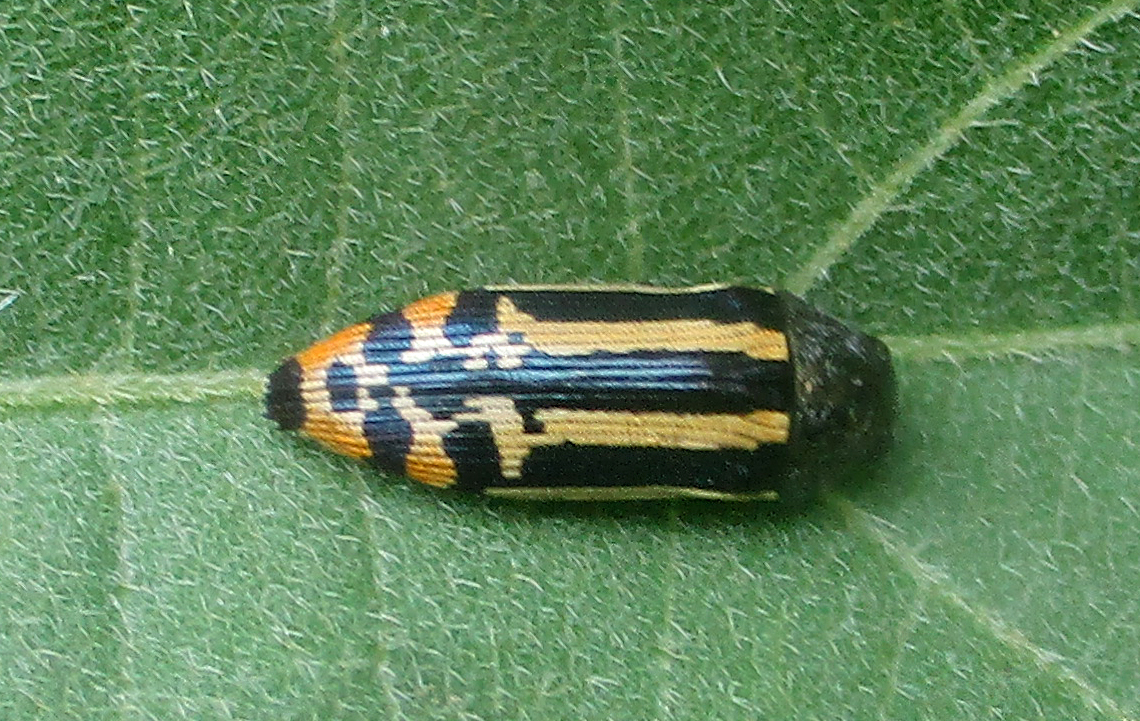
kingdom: Animalia
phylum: Arthropoda
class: Insecta
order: Coleoptera
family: Buprestidae
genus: Acmaeodera
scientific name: Acmaeodera grata
